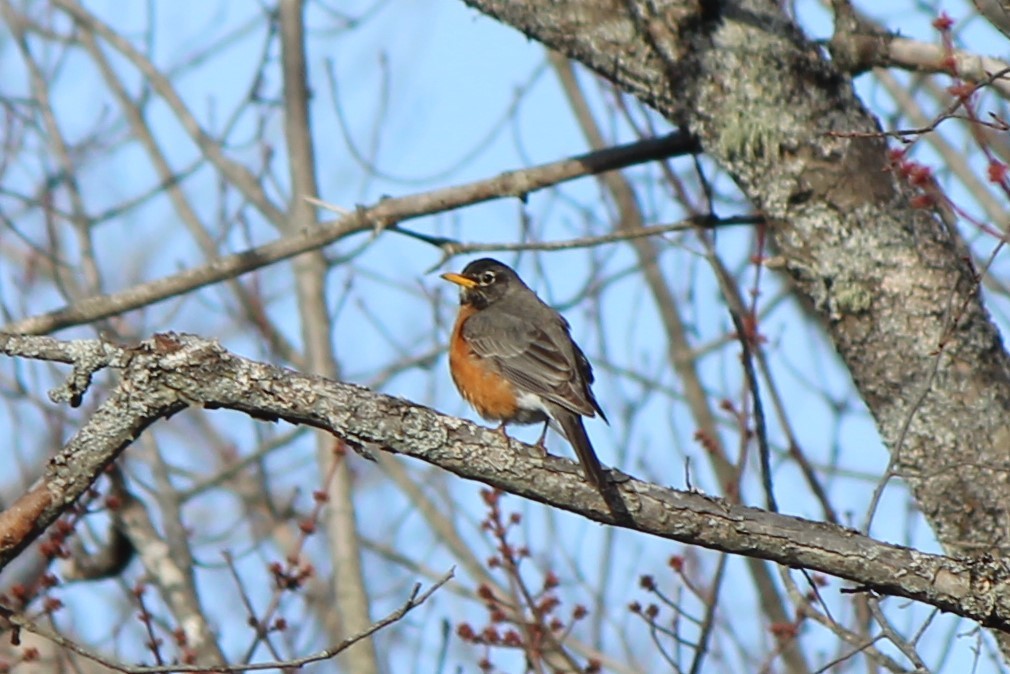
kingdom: Animalia
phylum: Chordata
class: Aves
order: Passeriformes
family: Turdidae
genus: Turdus
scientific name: Turdus migratorius
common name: American robin
